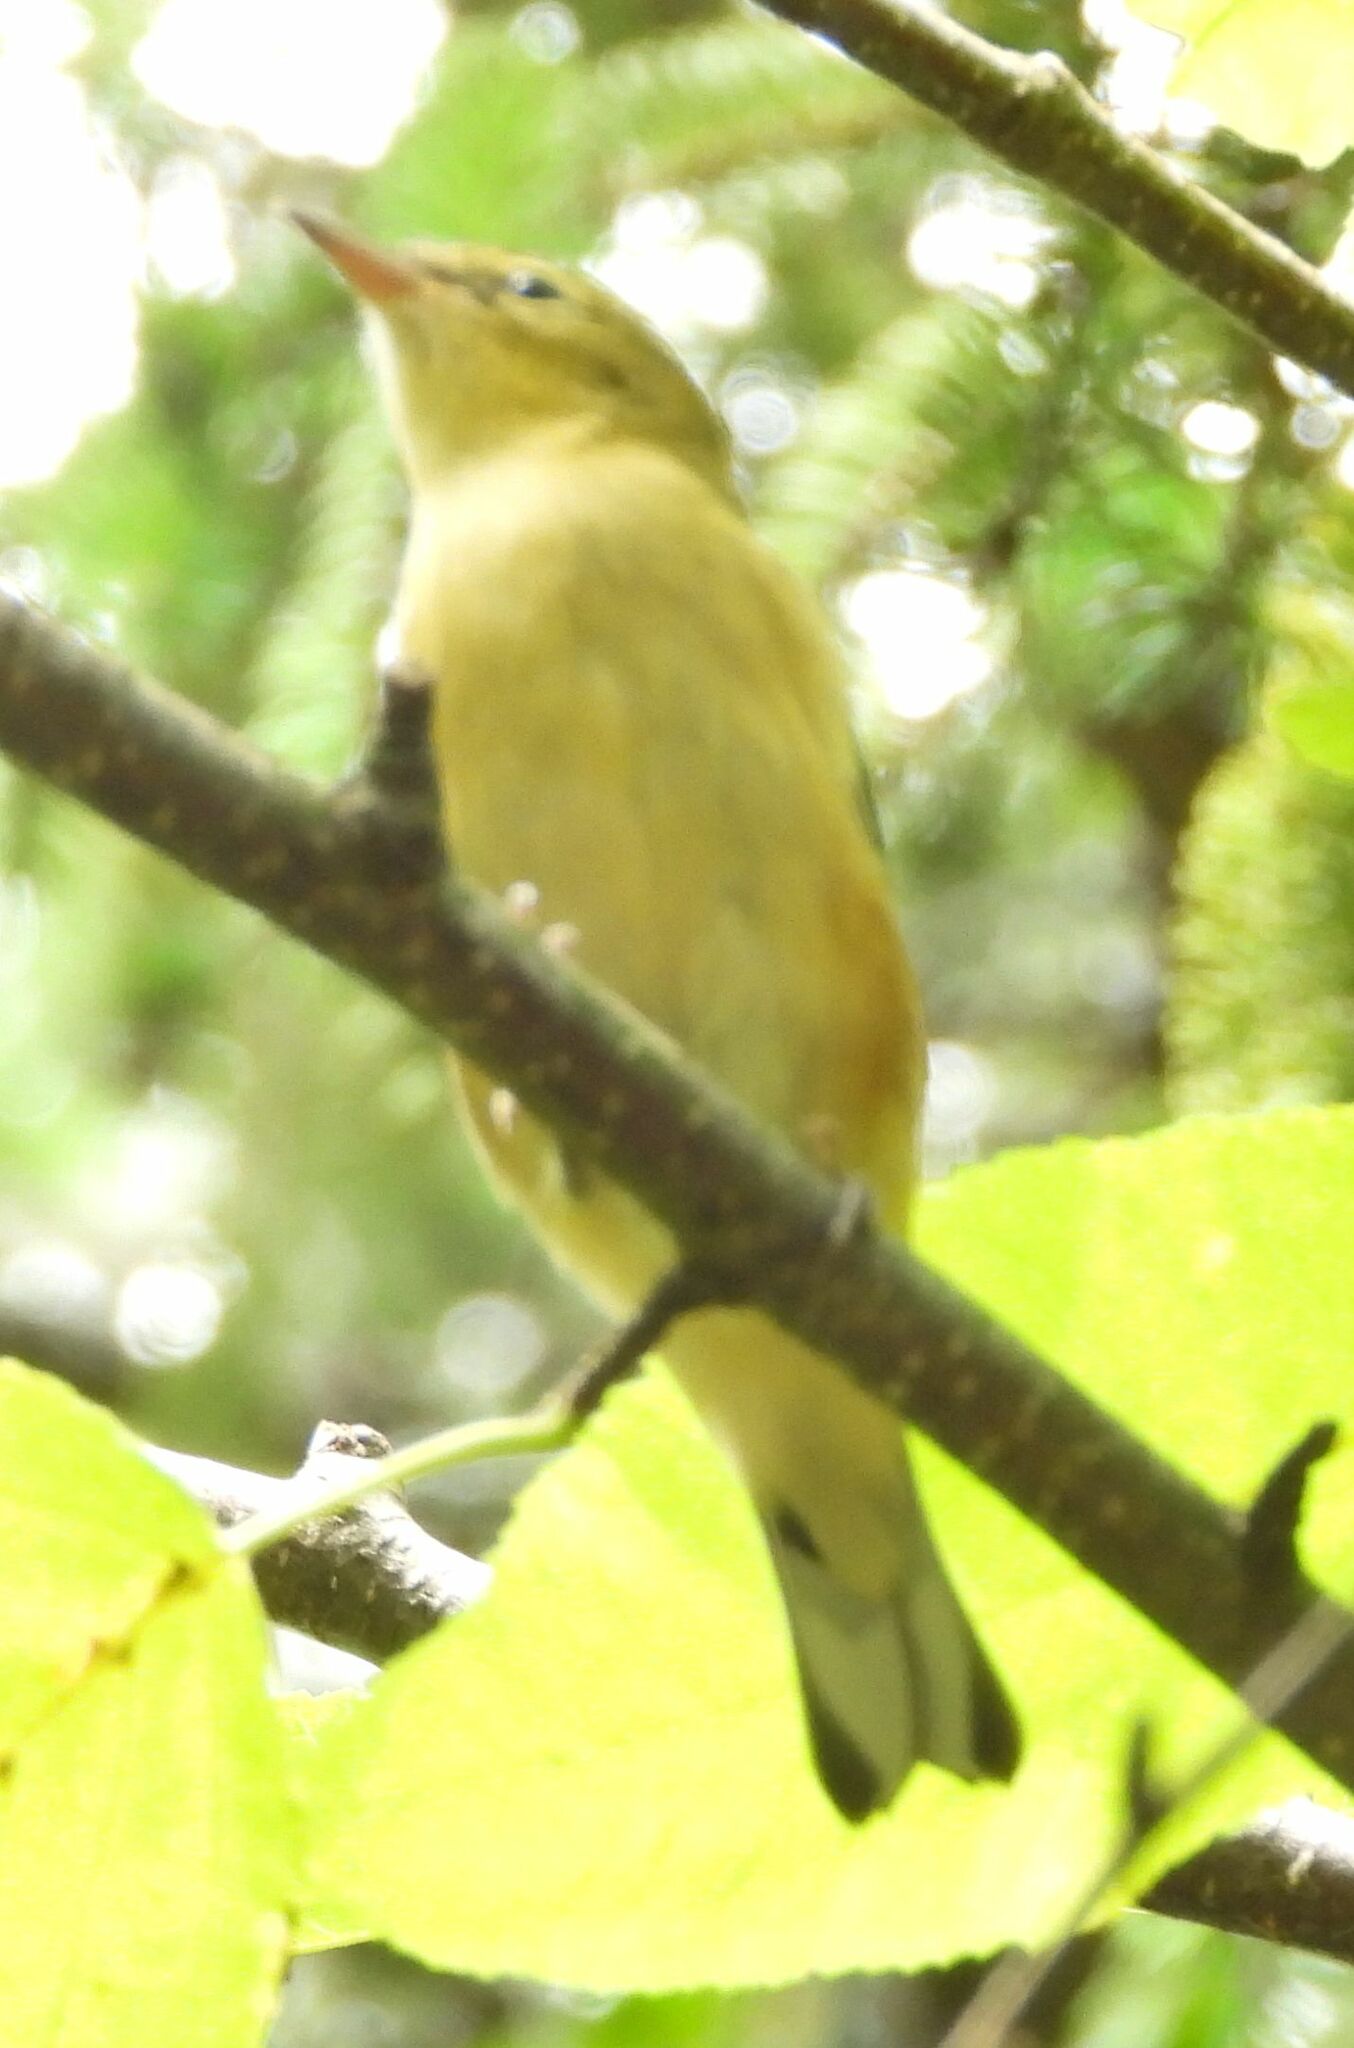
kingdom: Animalia
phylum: Chordata
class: Aves
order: Passeriformes
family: Parulidae
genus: Setophaga
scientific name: Setophaga castanea
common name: Bay-breasted warbler
